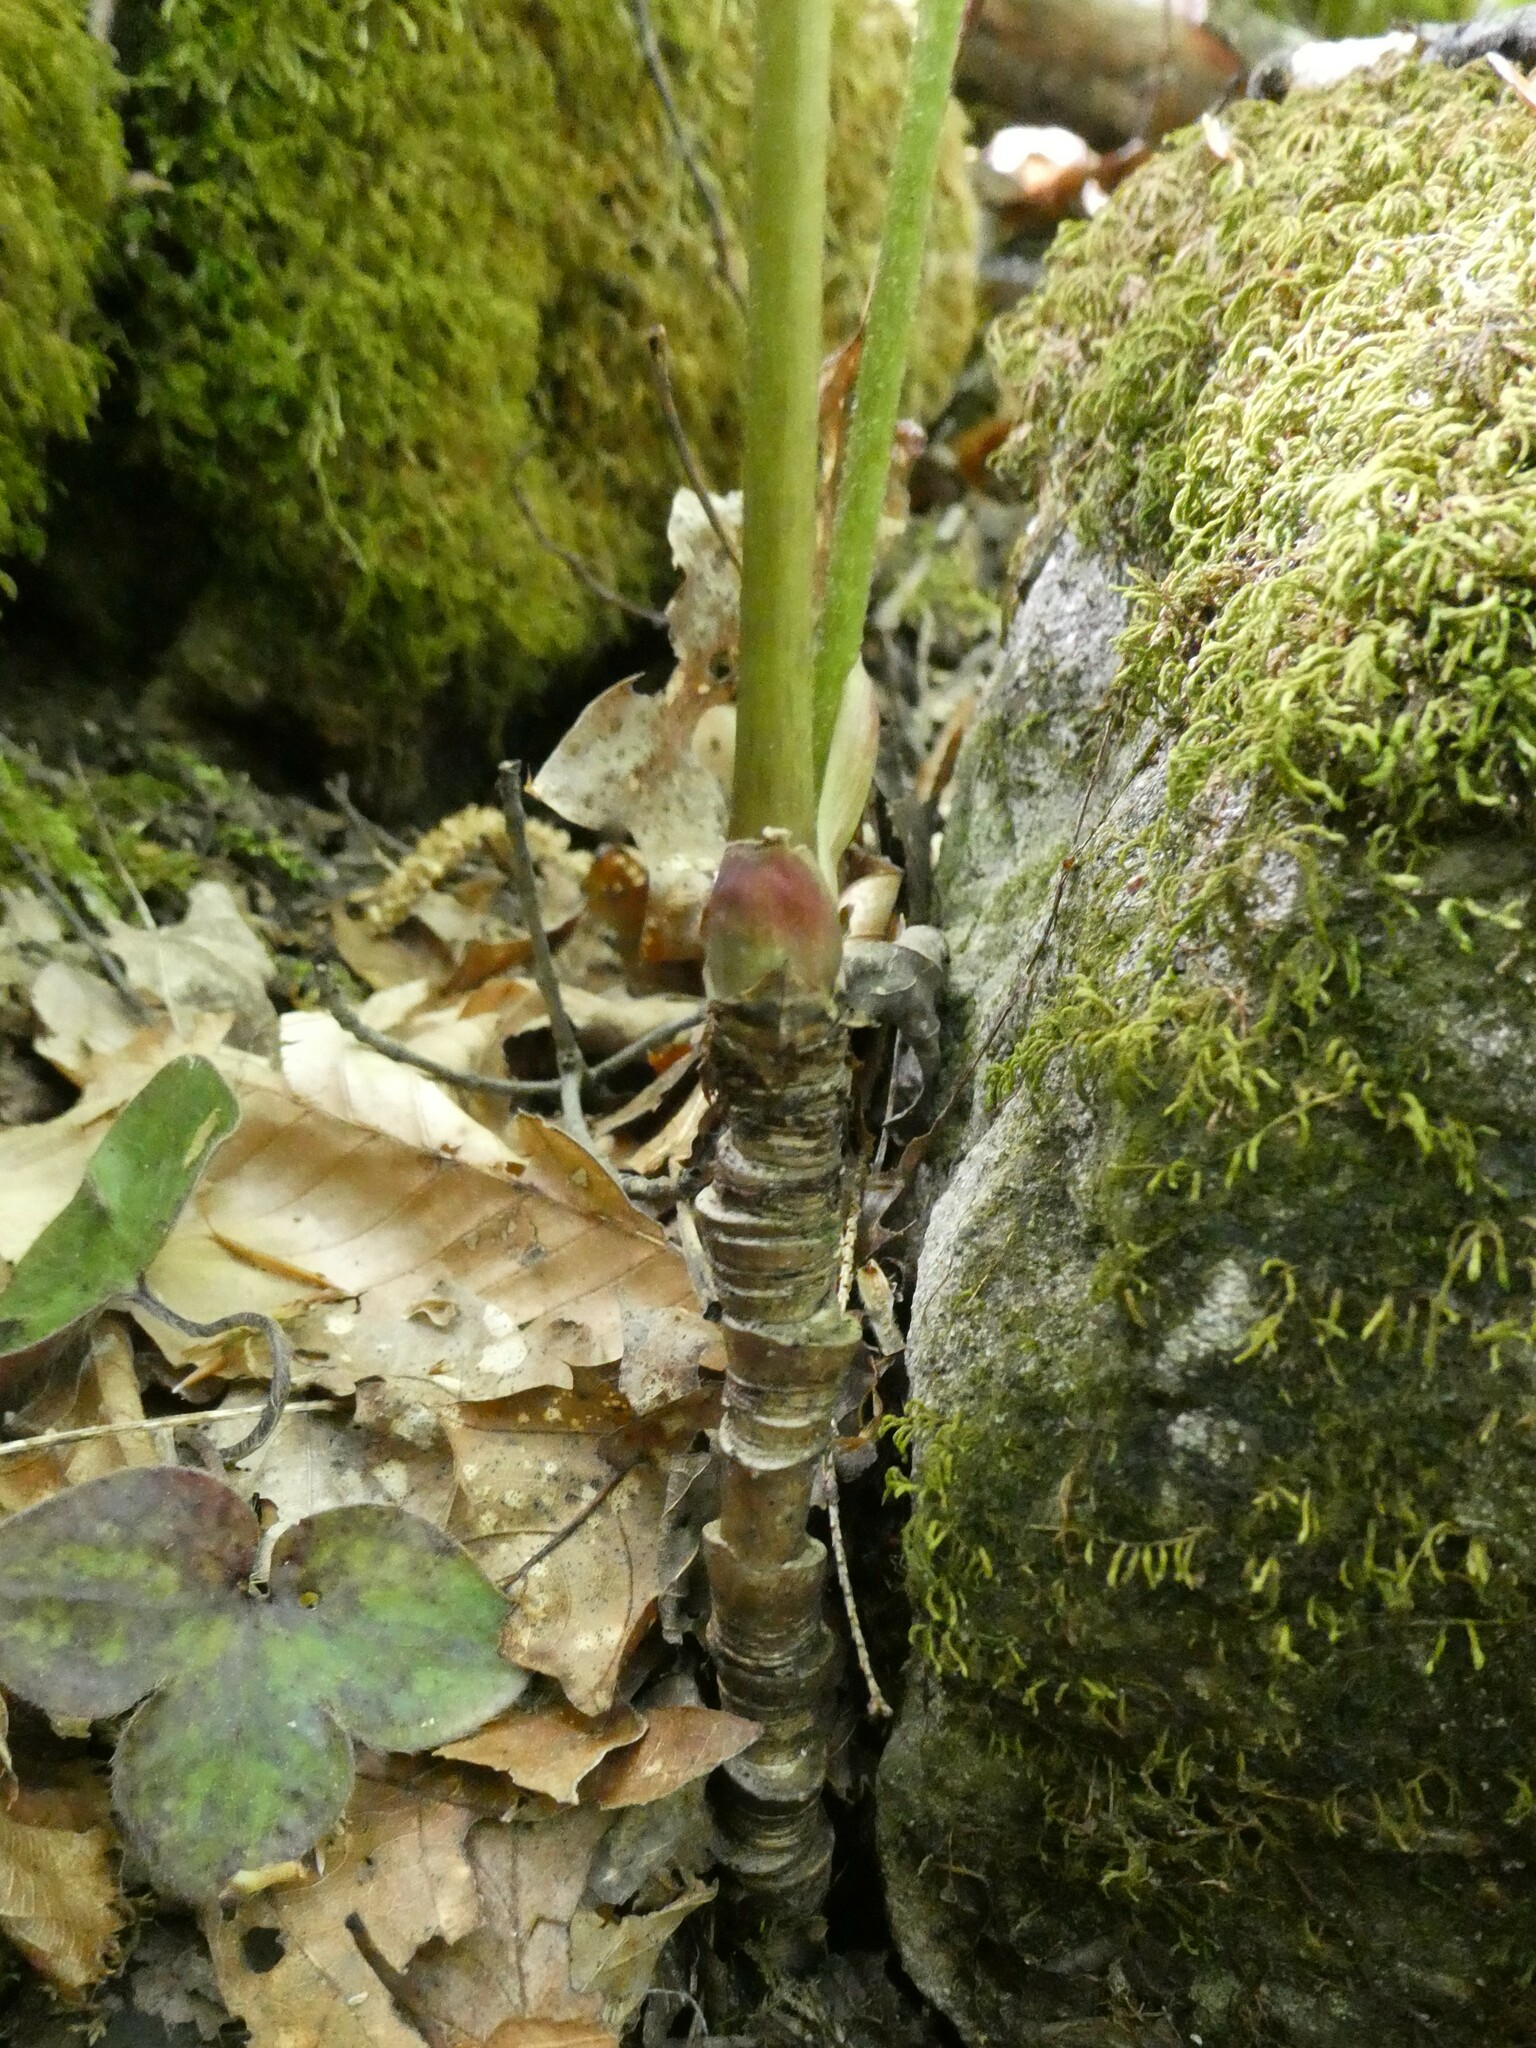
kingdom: Plantae
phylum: Tracheophyta
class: Magnoliopsida
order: Apiales
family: Araliaceae
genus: Aralia
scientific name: Aralia nudicaulis
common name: Wild sarsaparilla
